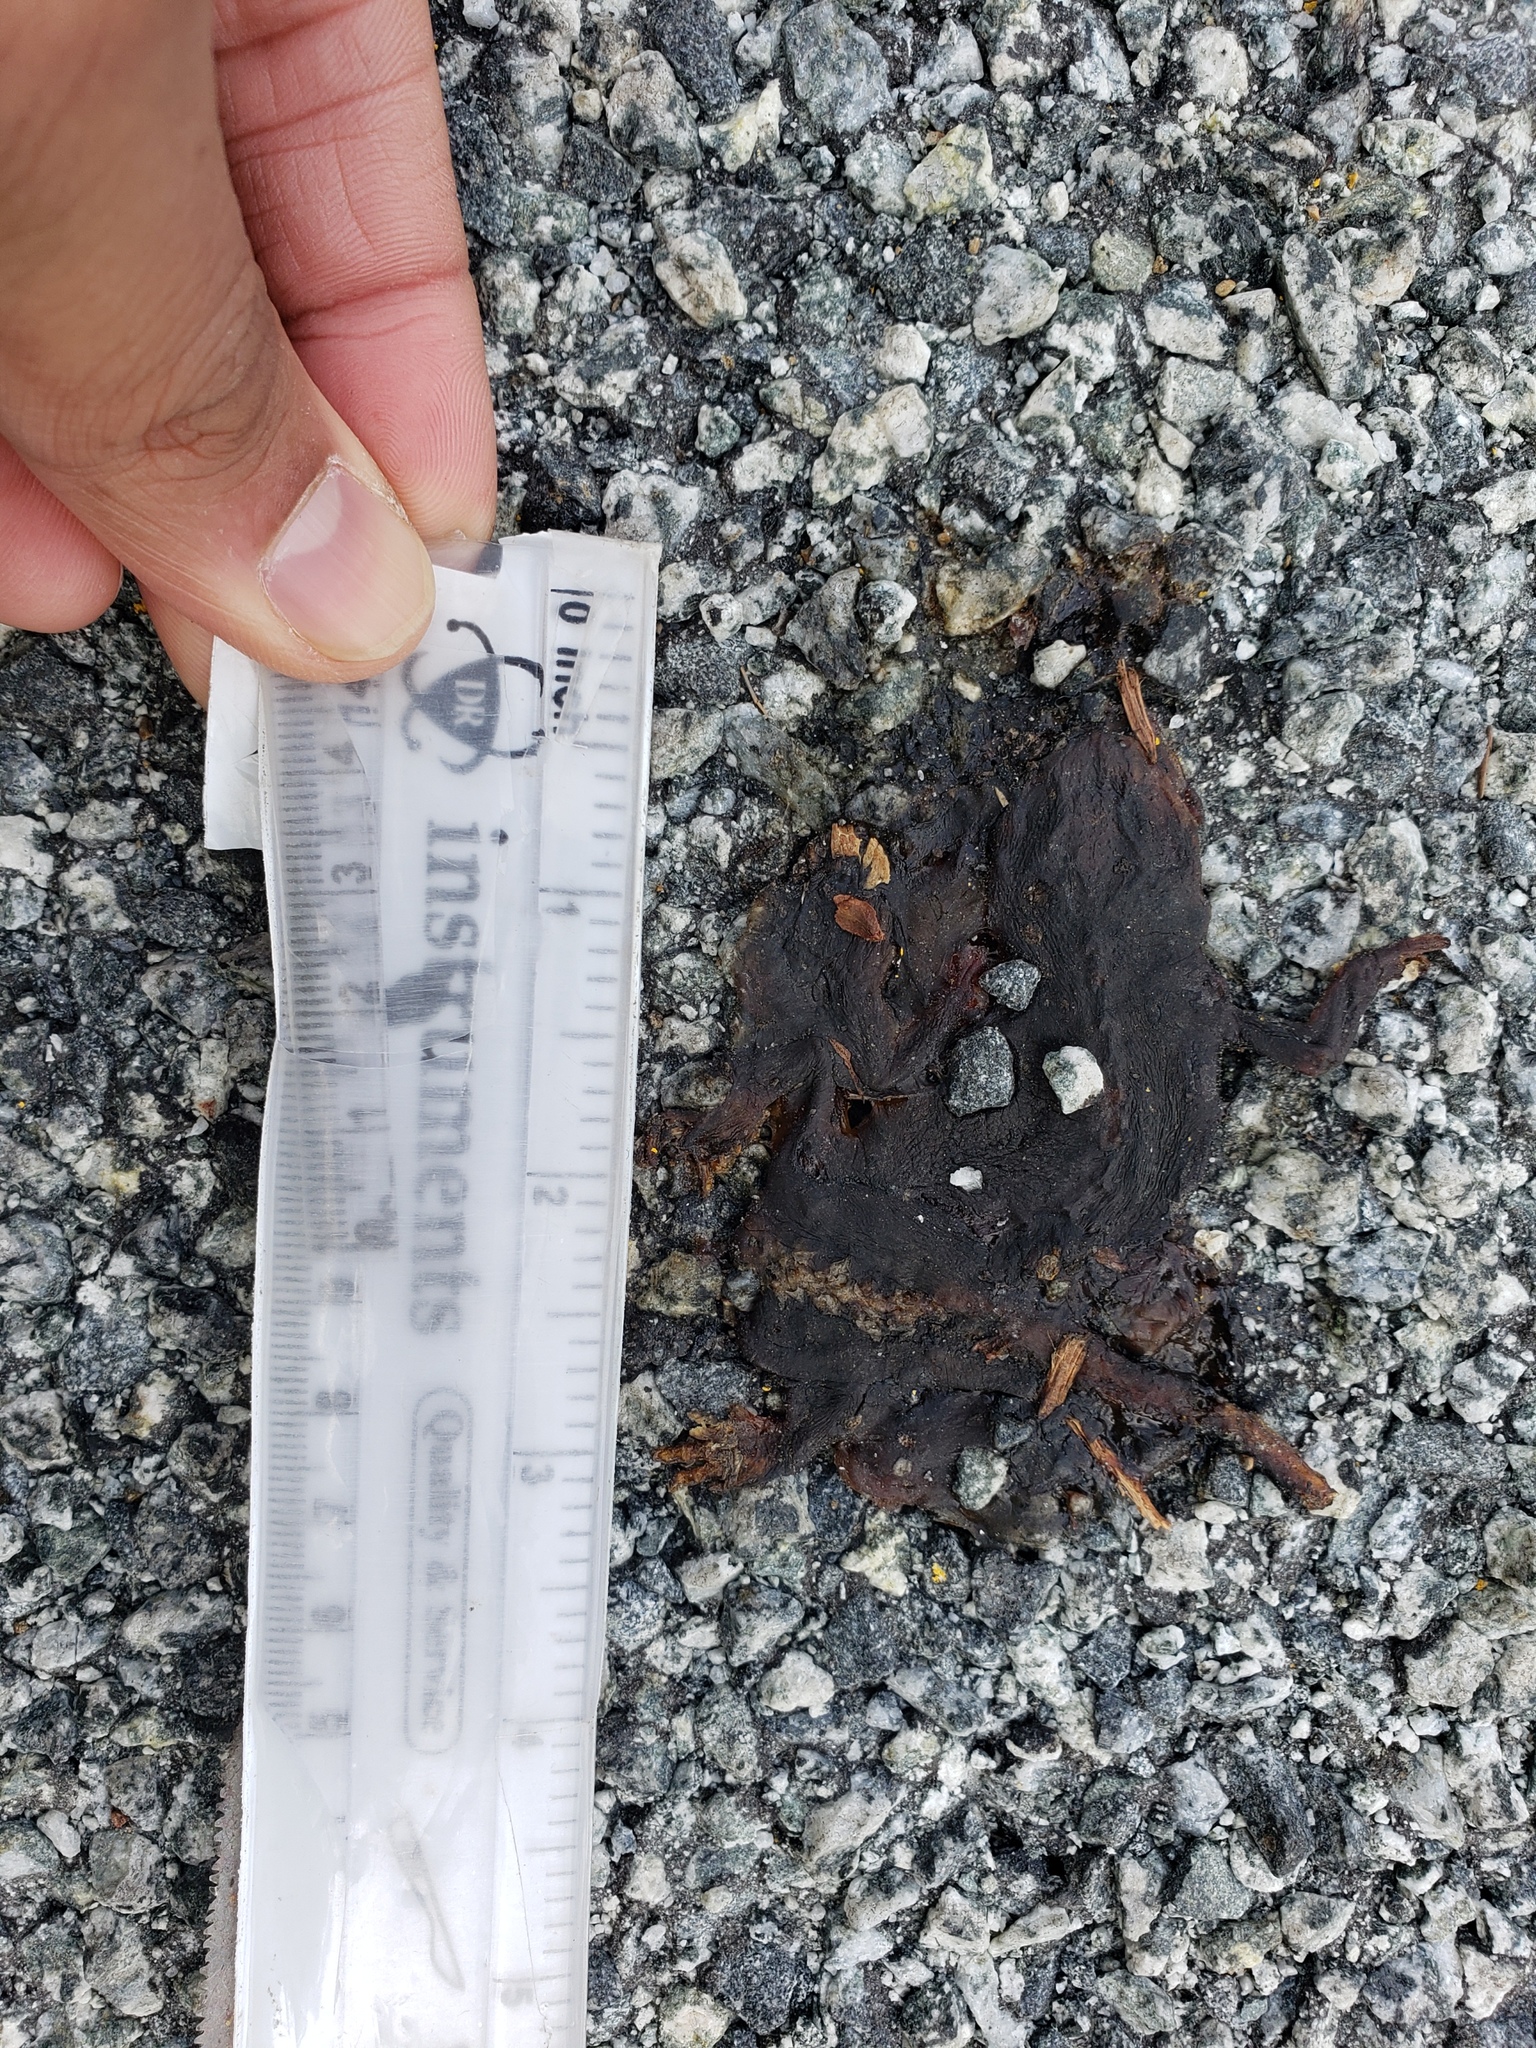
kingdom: Animalia
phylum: Chordata
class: Amphibia
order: Caudata
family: Salamandridae
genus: Taricha
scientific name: Taricha
